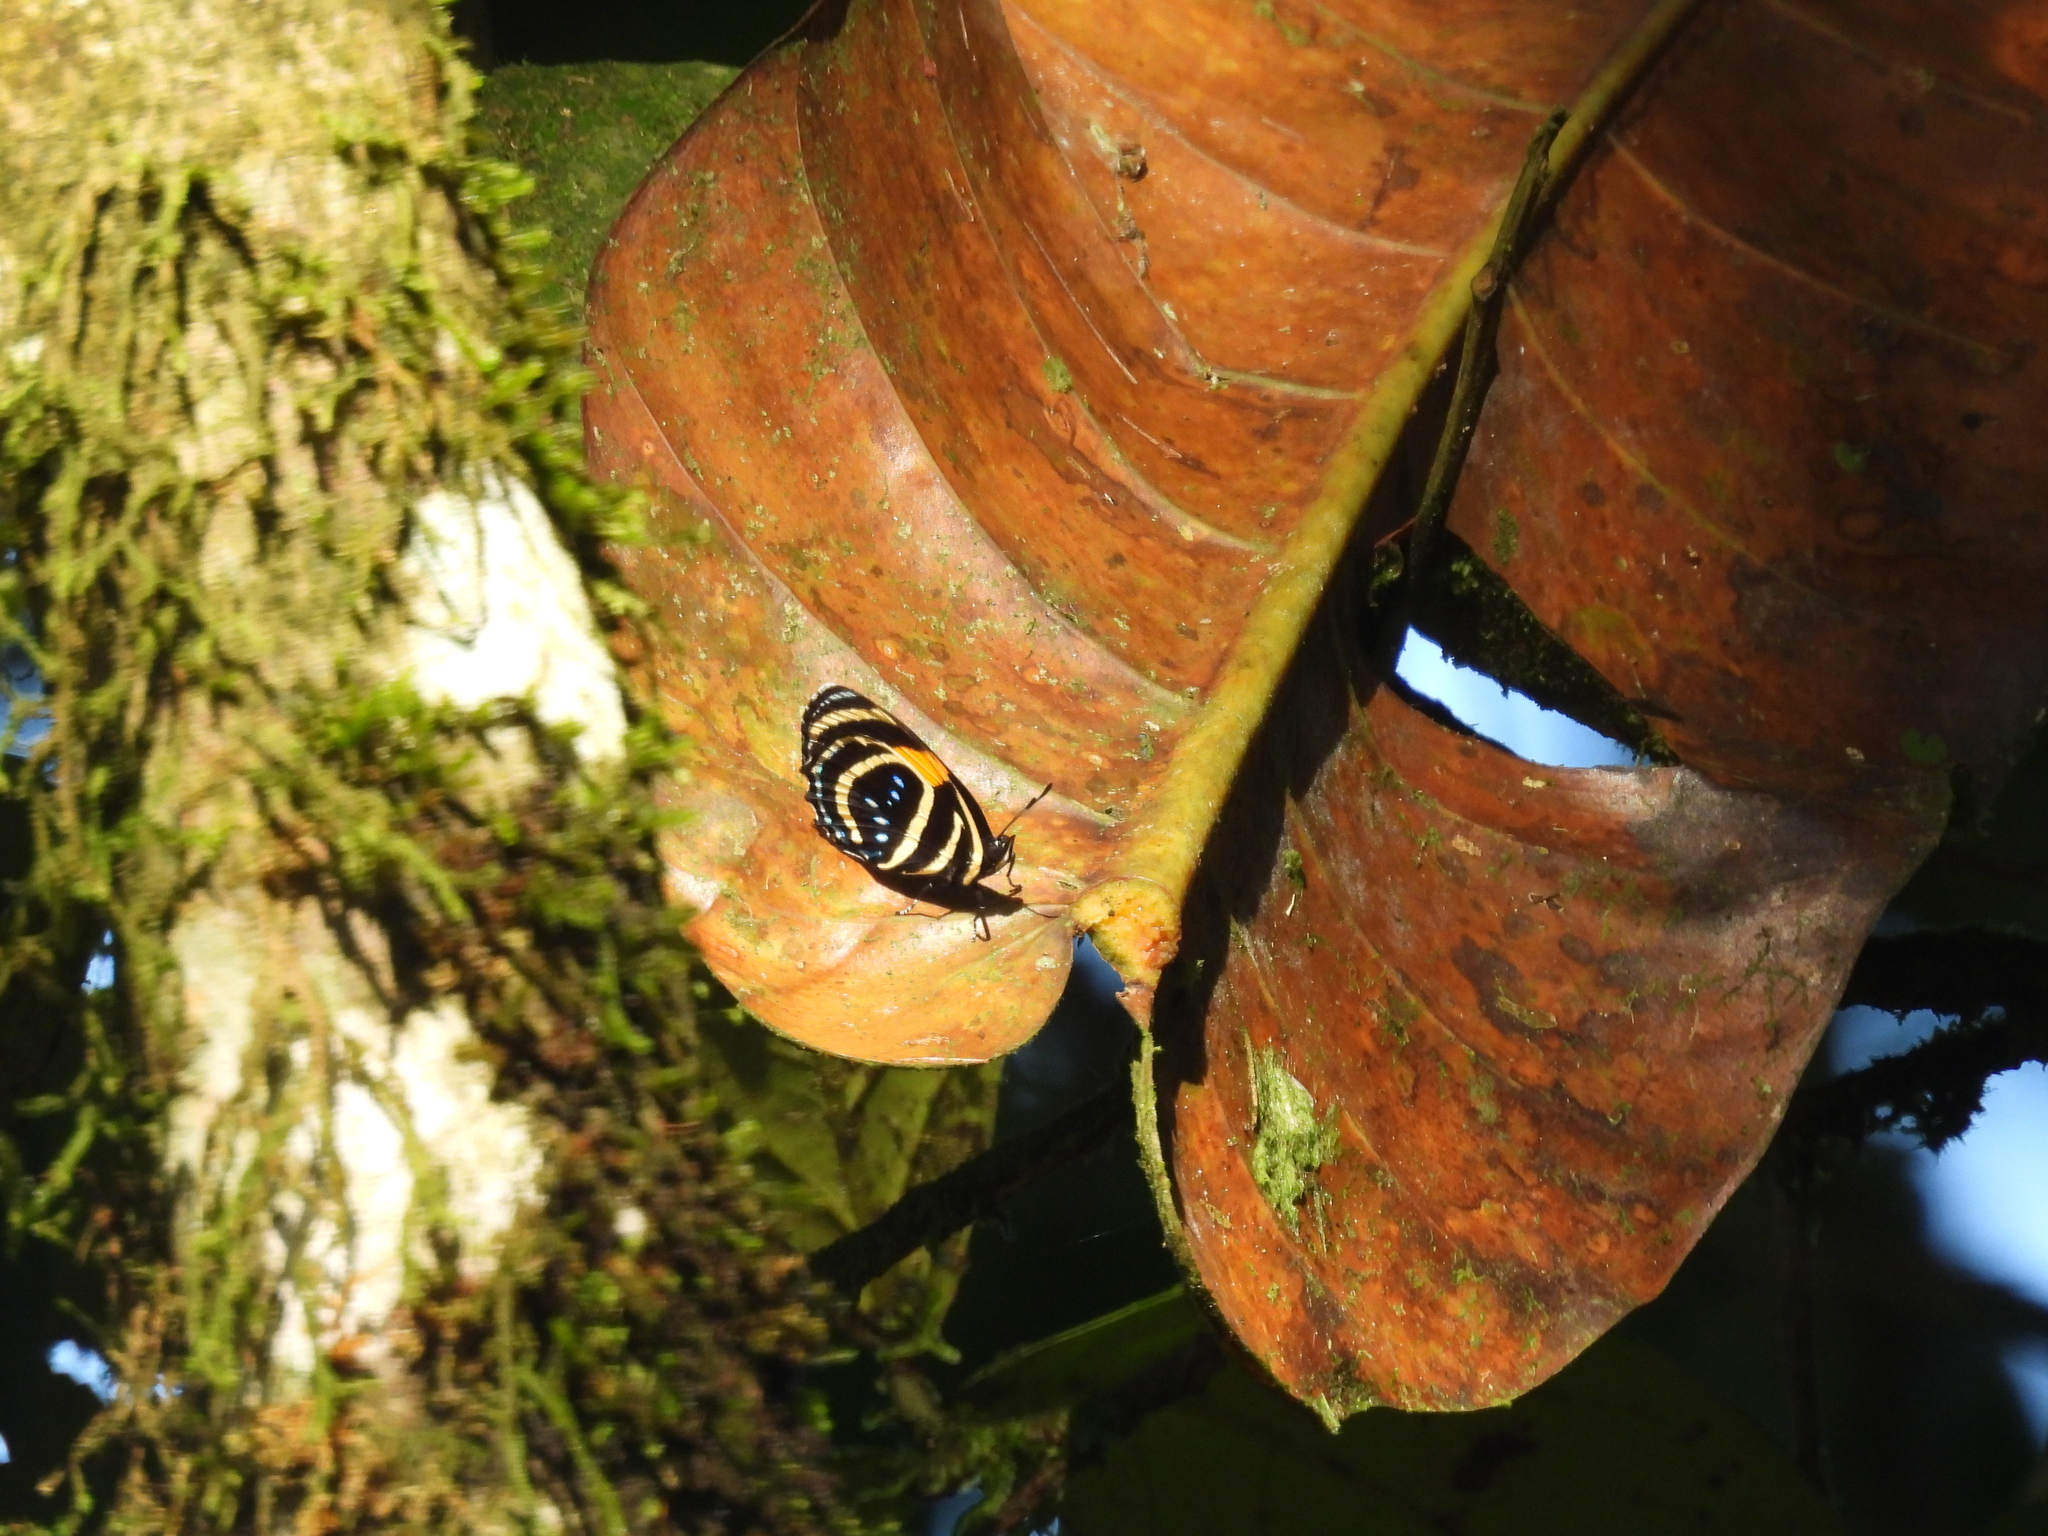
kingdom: Animalia
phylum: Arthropoda
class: Insecta
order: Lepidoptera
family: Nymphalidae
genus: Catagramma
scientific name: Catagramma Callicore lyca
